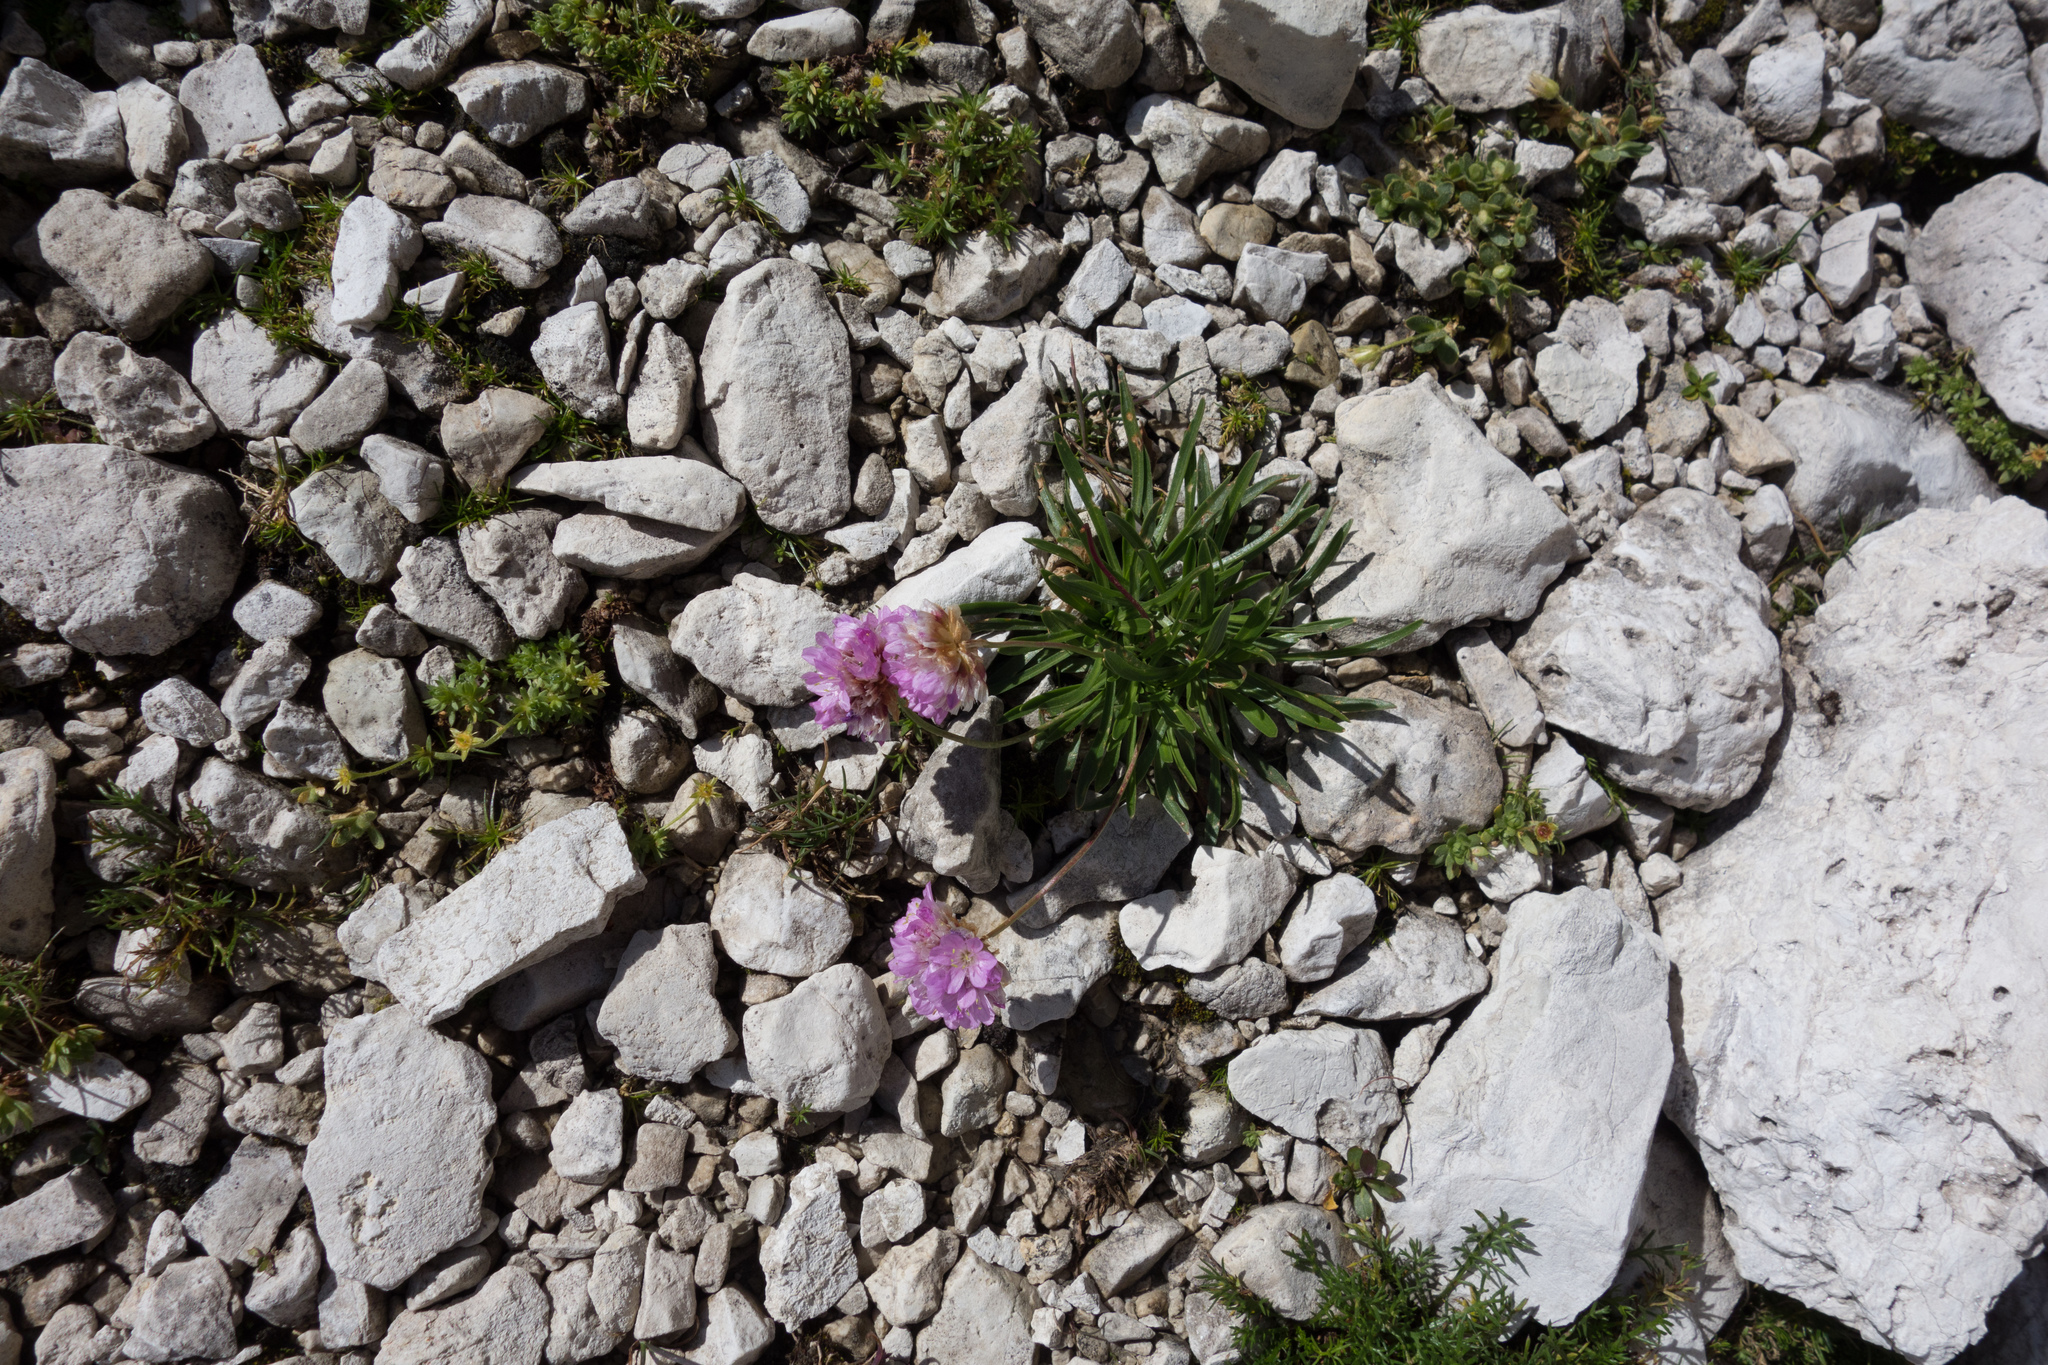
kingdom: Plantae
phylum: Tracheophyta
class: Magnoliopsida
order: Caryophyllales
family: Plumbaginaceae
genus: Armeria
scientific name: Armeria alpina
